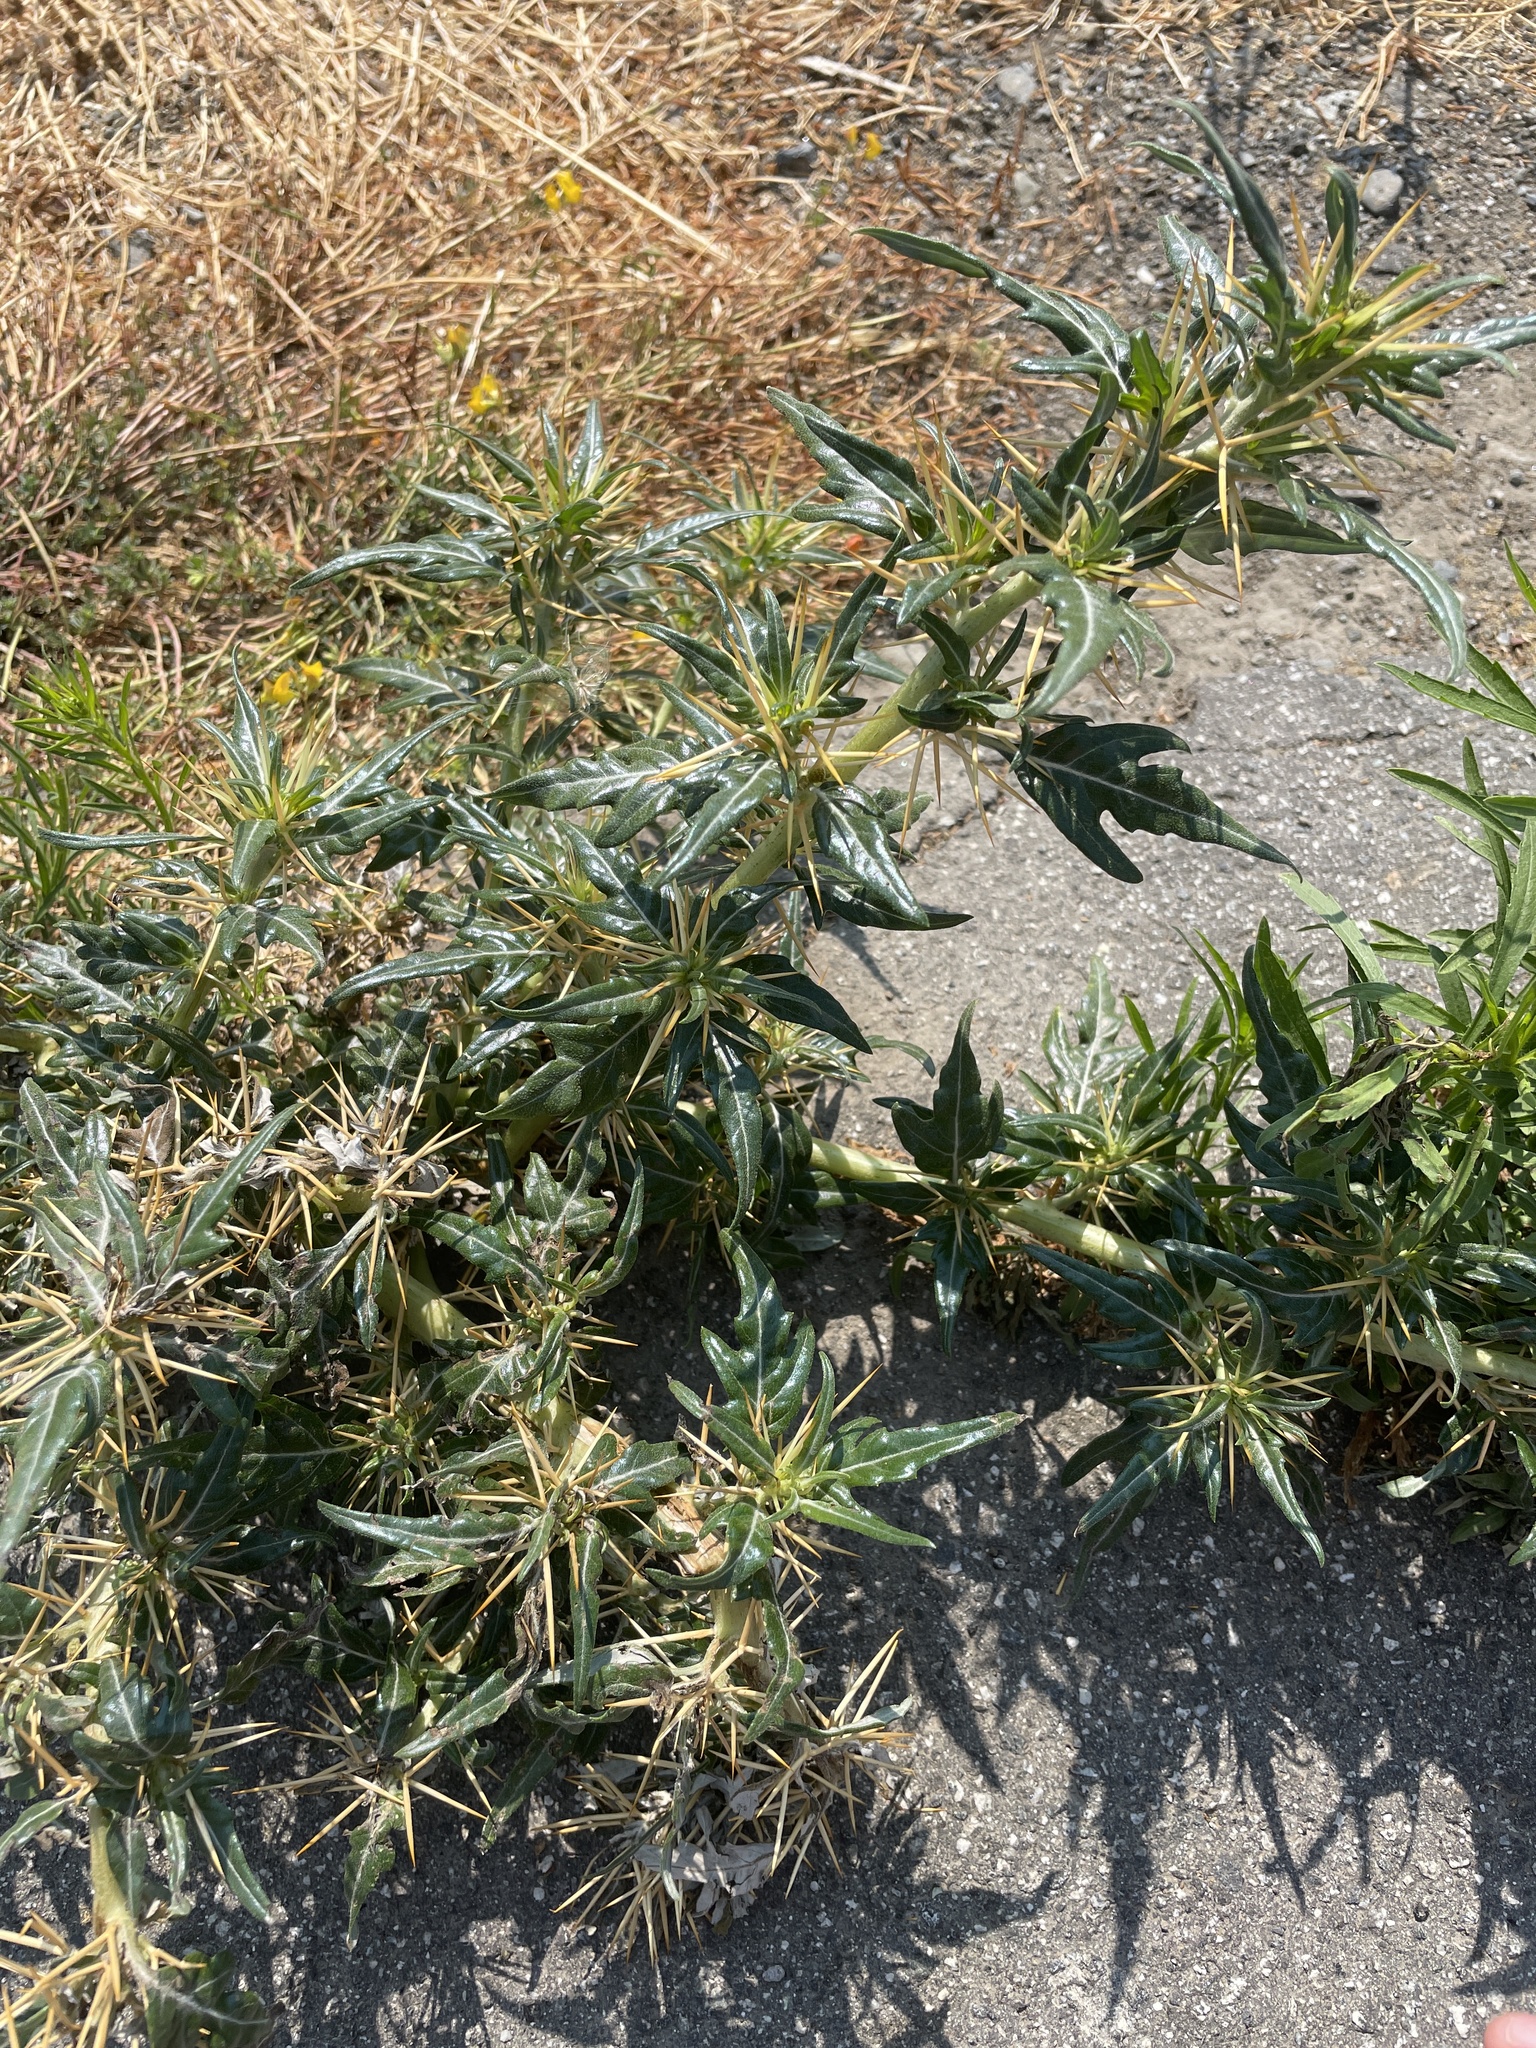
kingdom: Plantae
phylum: Tracheophyta
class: Magnoliopsida
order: Asterales
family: Asteraceae
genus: Xanthium
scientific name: Xanthium spinosum
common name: Spiny cocklebur
